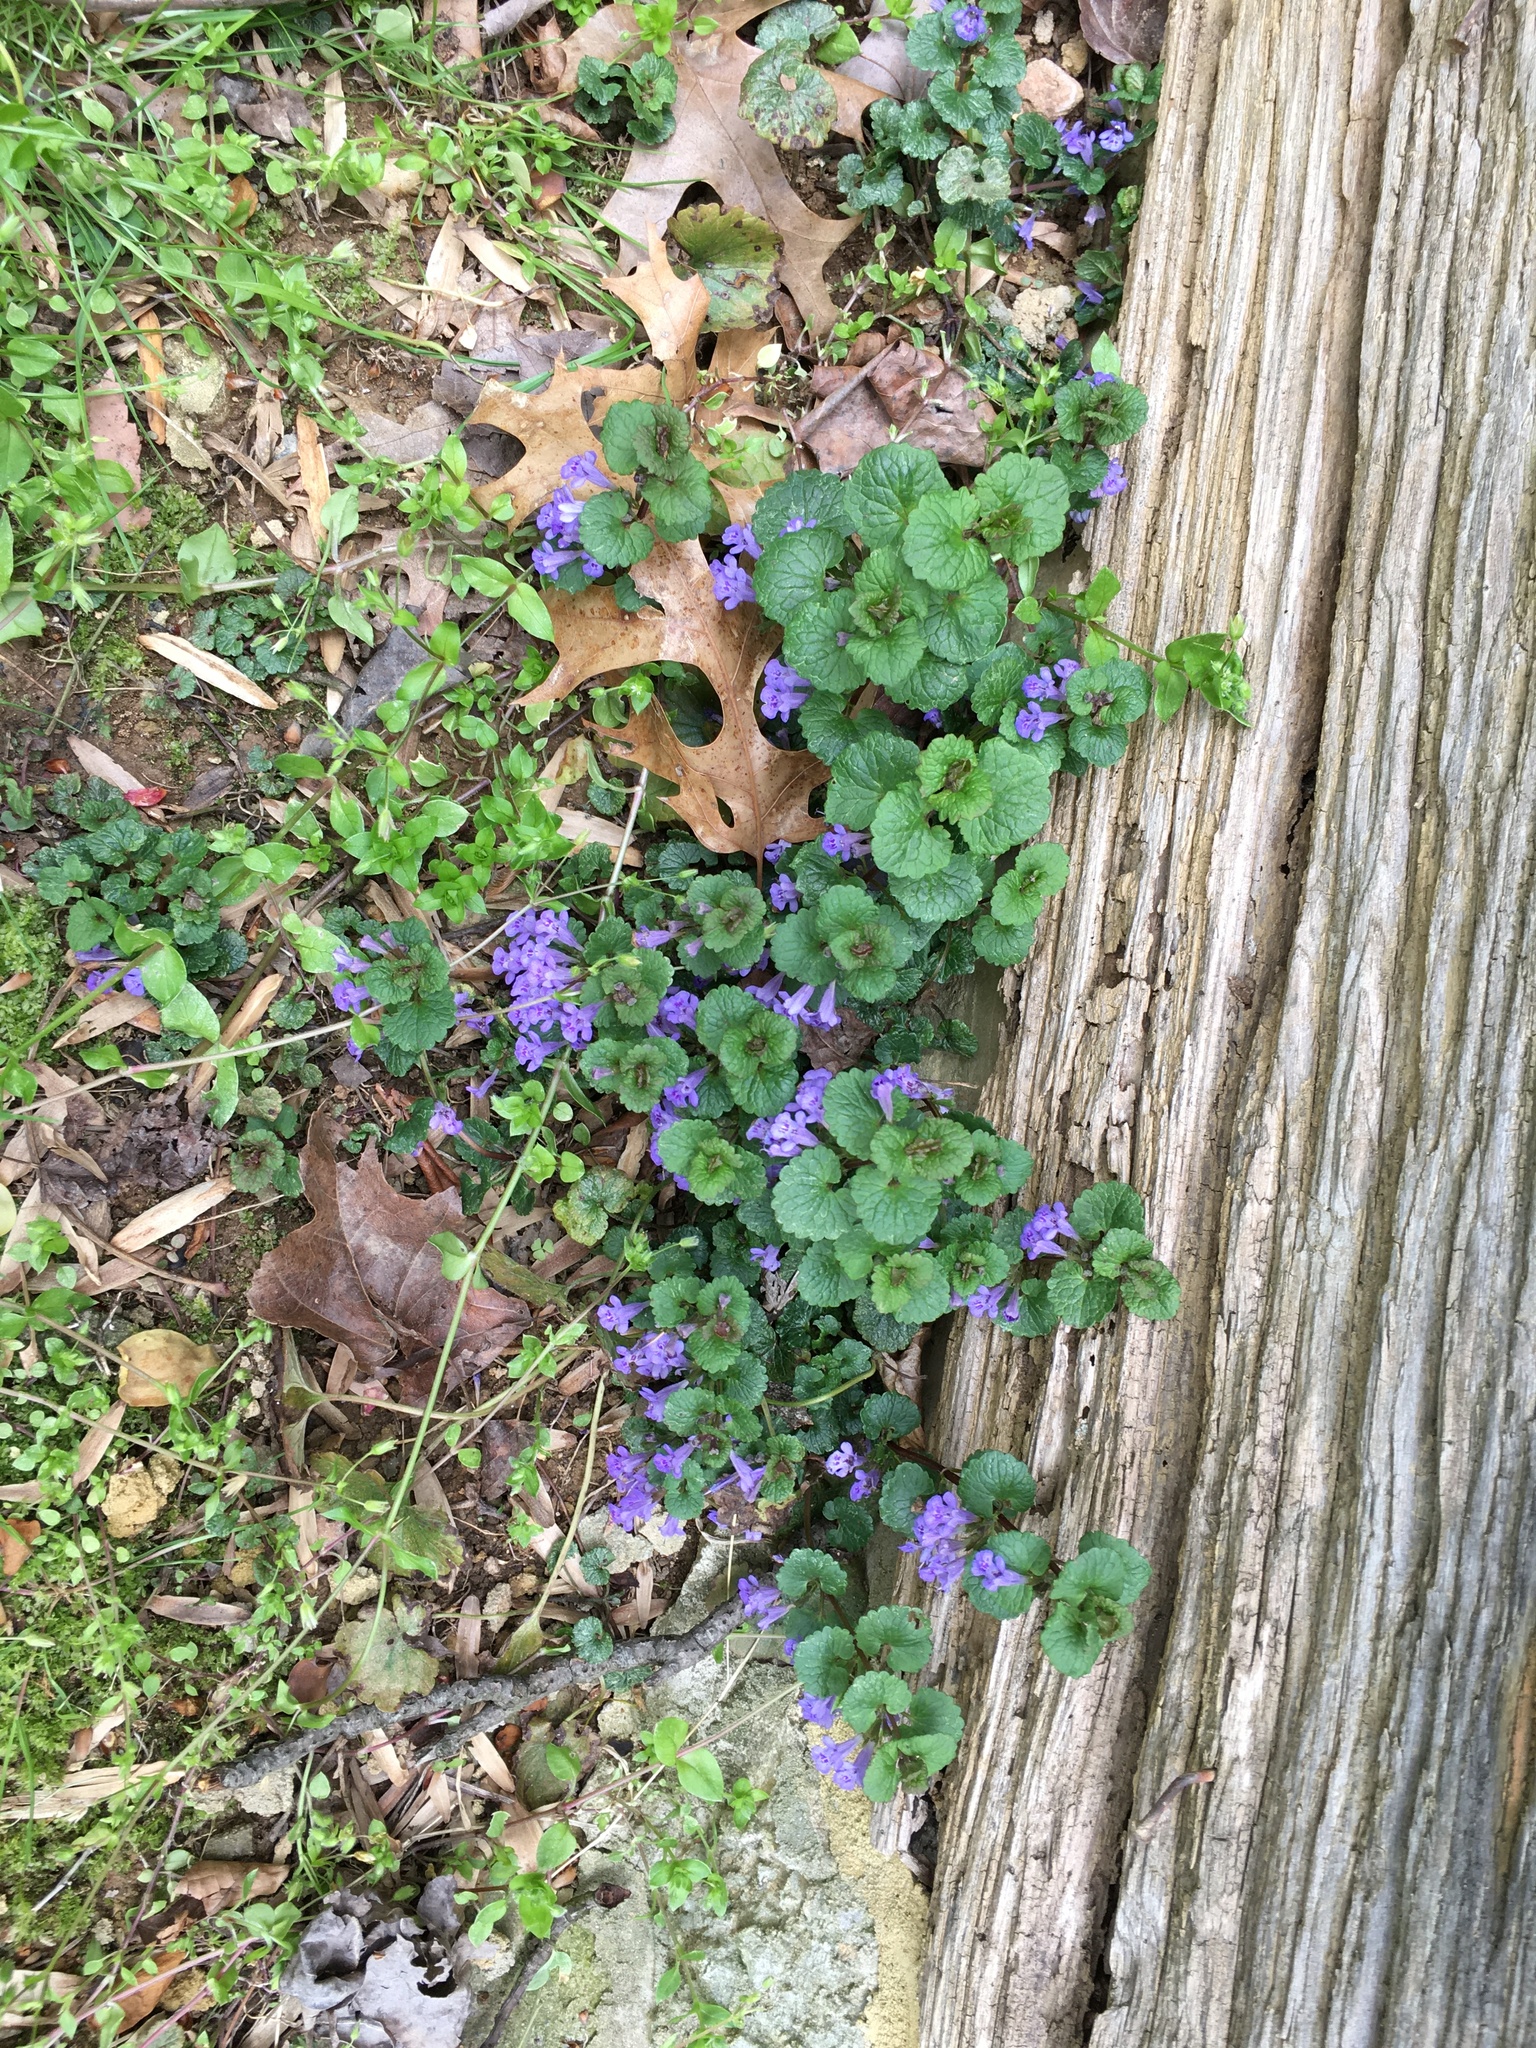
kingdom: Plantae
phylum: Tracheophyta
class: Magnoliopsida
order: Lamiales
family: Lamiaceae
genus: Glechoma
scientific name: Glechoma hederacea
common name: Ground ivy
